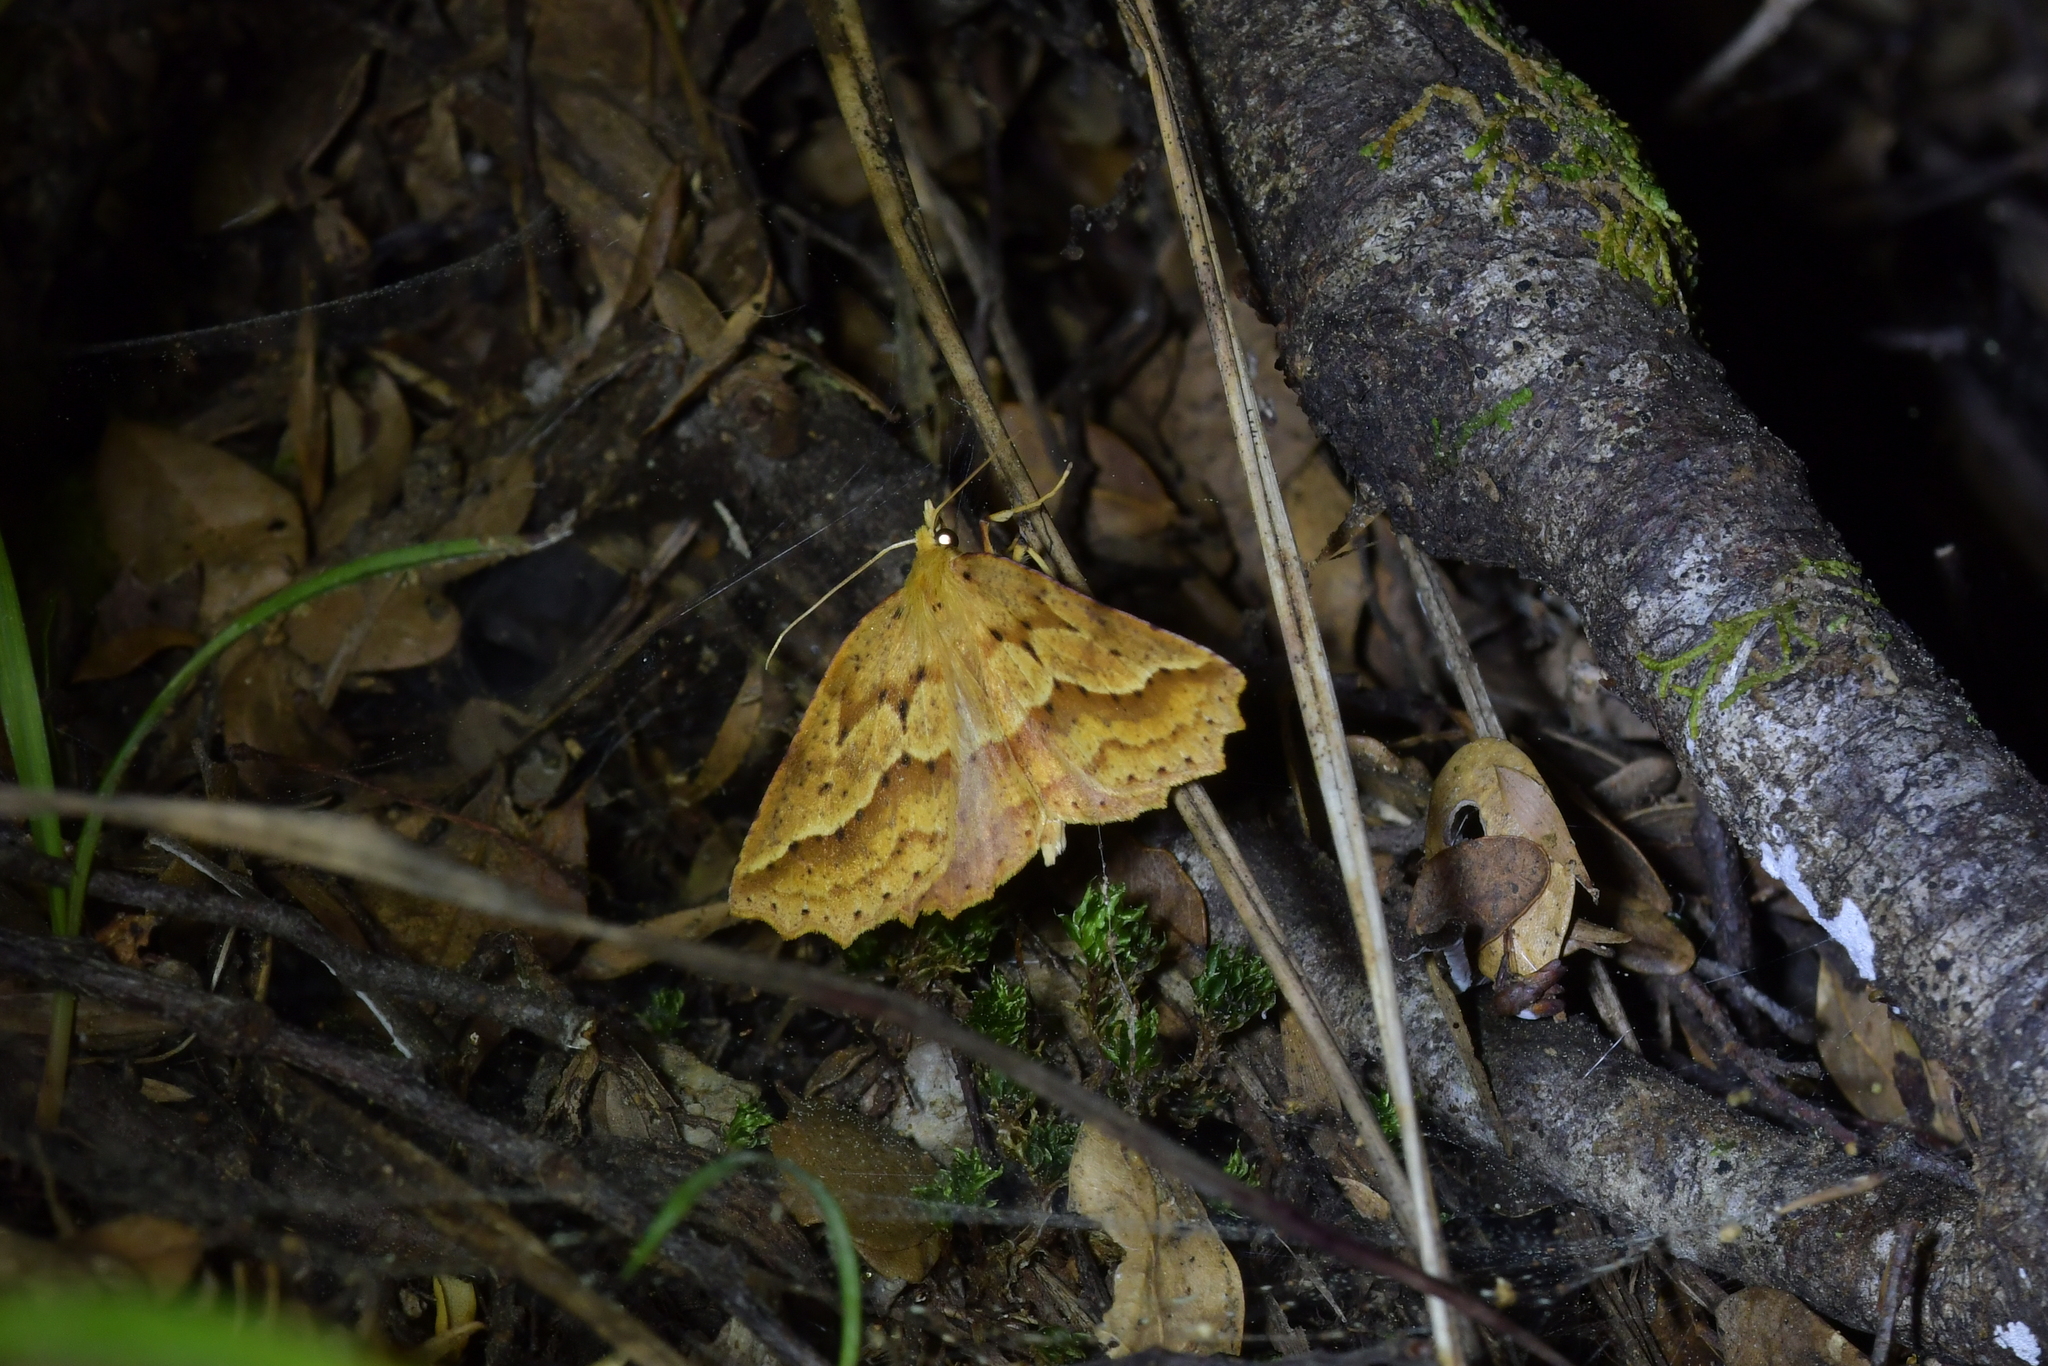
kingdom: Animalia
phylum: Arthropoda
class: Insecta
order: Lepidoptera
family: Geometridae
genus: Ischalis
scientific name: Ischalis variabilis
